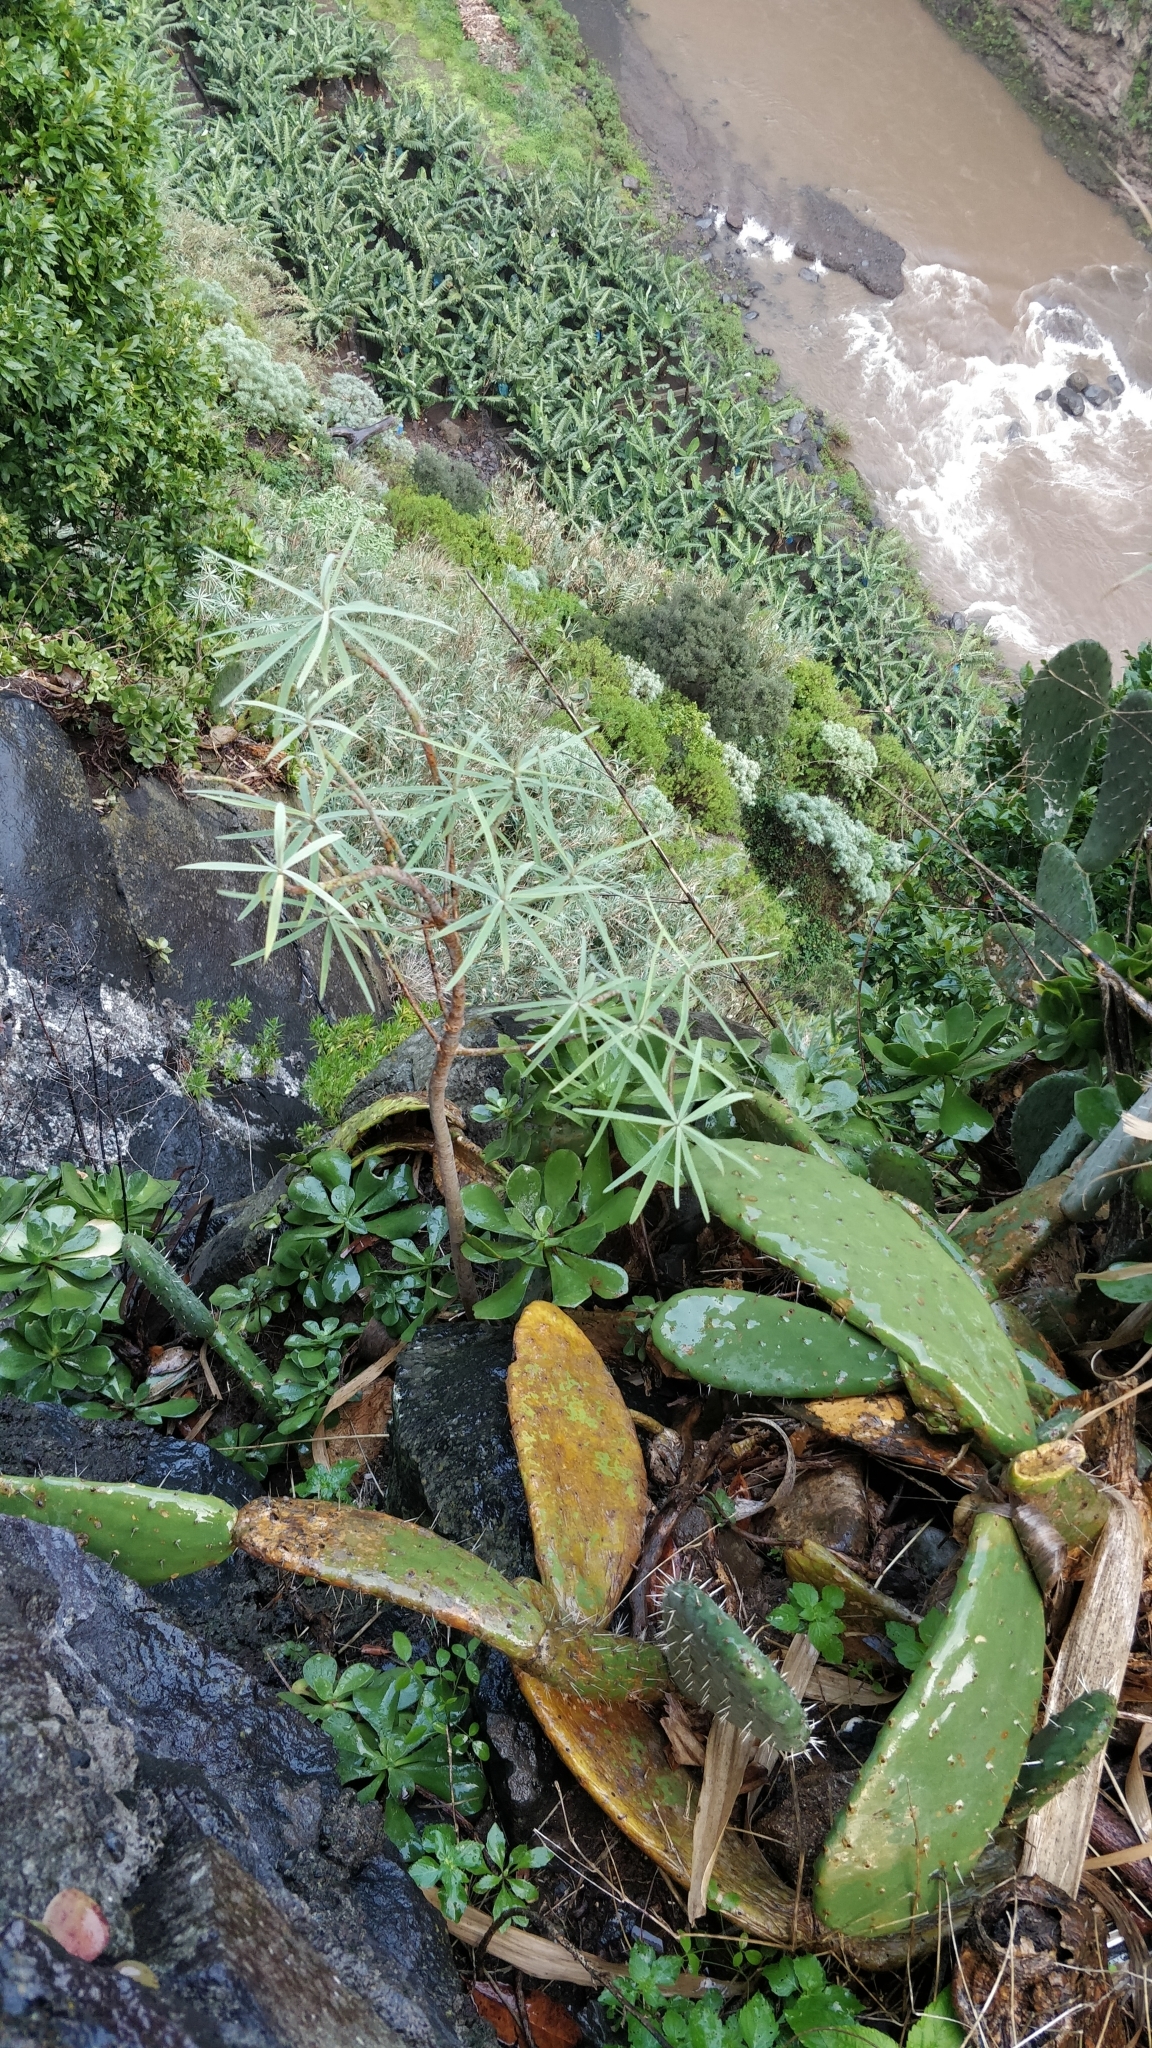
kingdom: Plantae
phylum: Tracheophyta
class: Magnoliopsida
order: Malpighiales
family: Euphorbiaceae
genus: Euphorbia
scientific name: Euphorbia piscatoria
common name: Fish-stunning spurge
